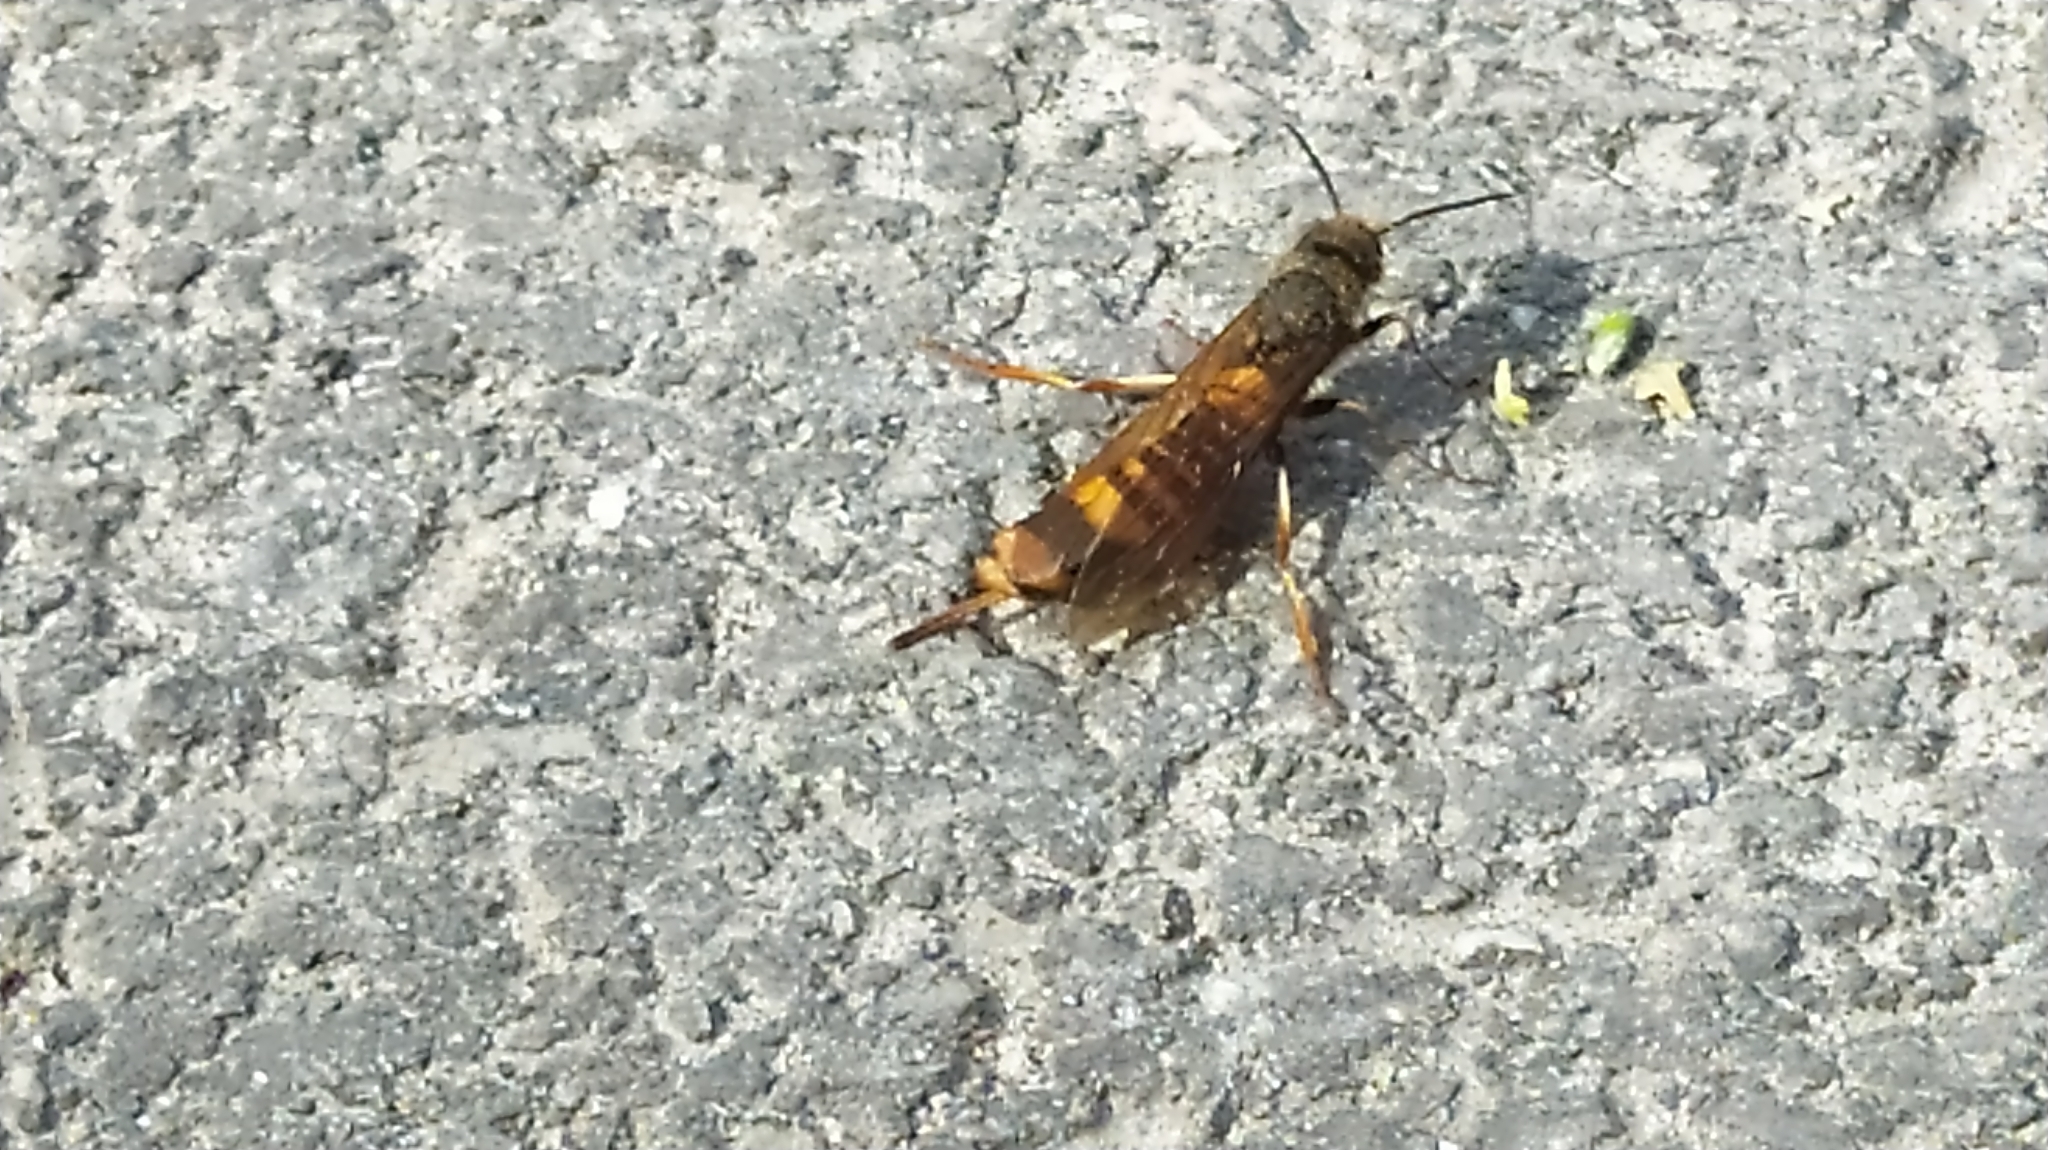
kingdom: Animalia
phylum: Arthropoda
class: Insecta
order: Hymenoptera
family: Siricidae
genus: Tremex
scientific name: Tremex fuscicornis
